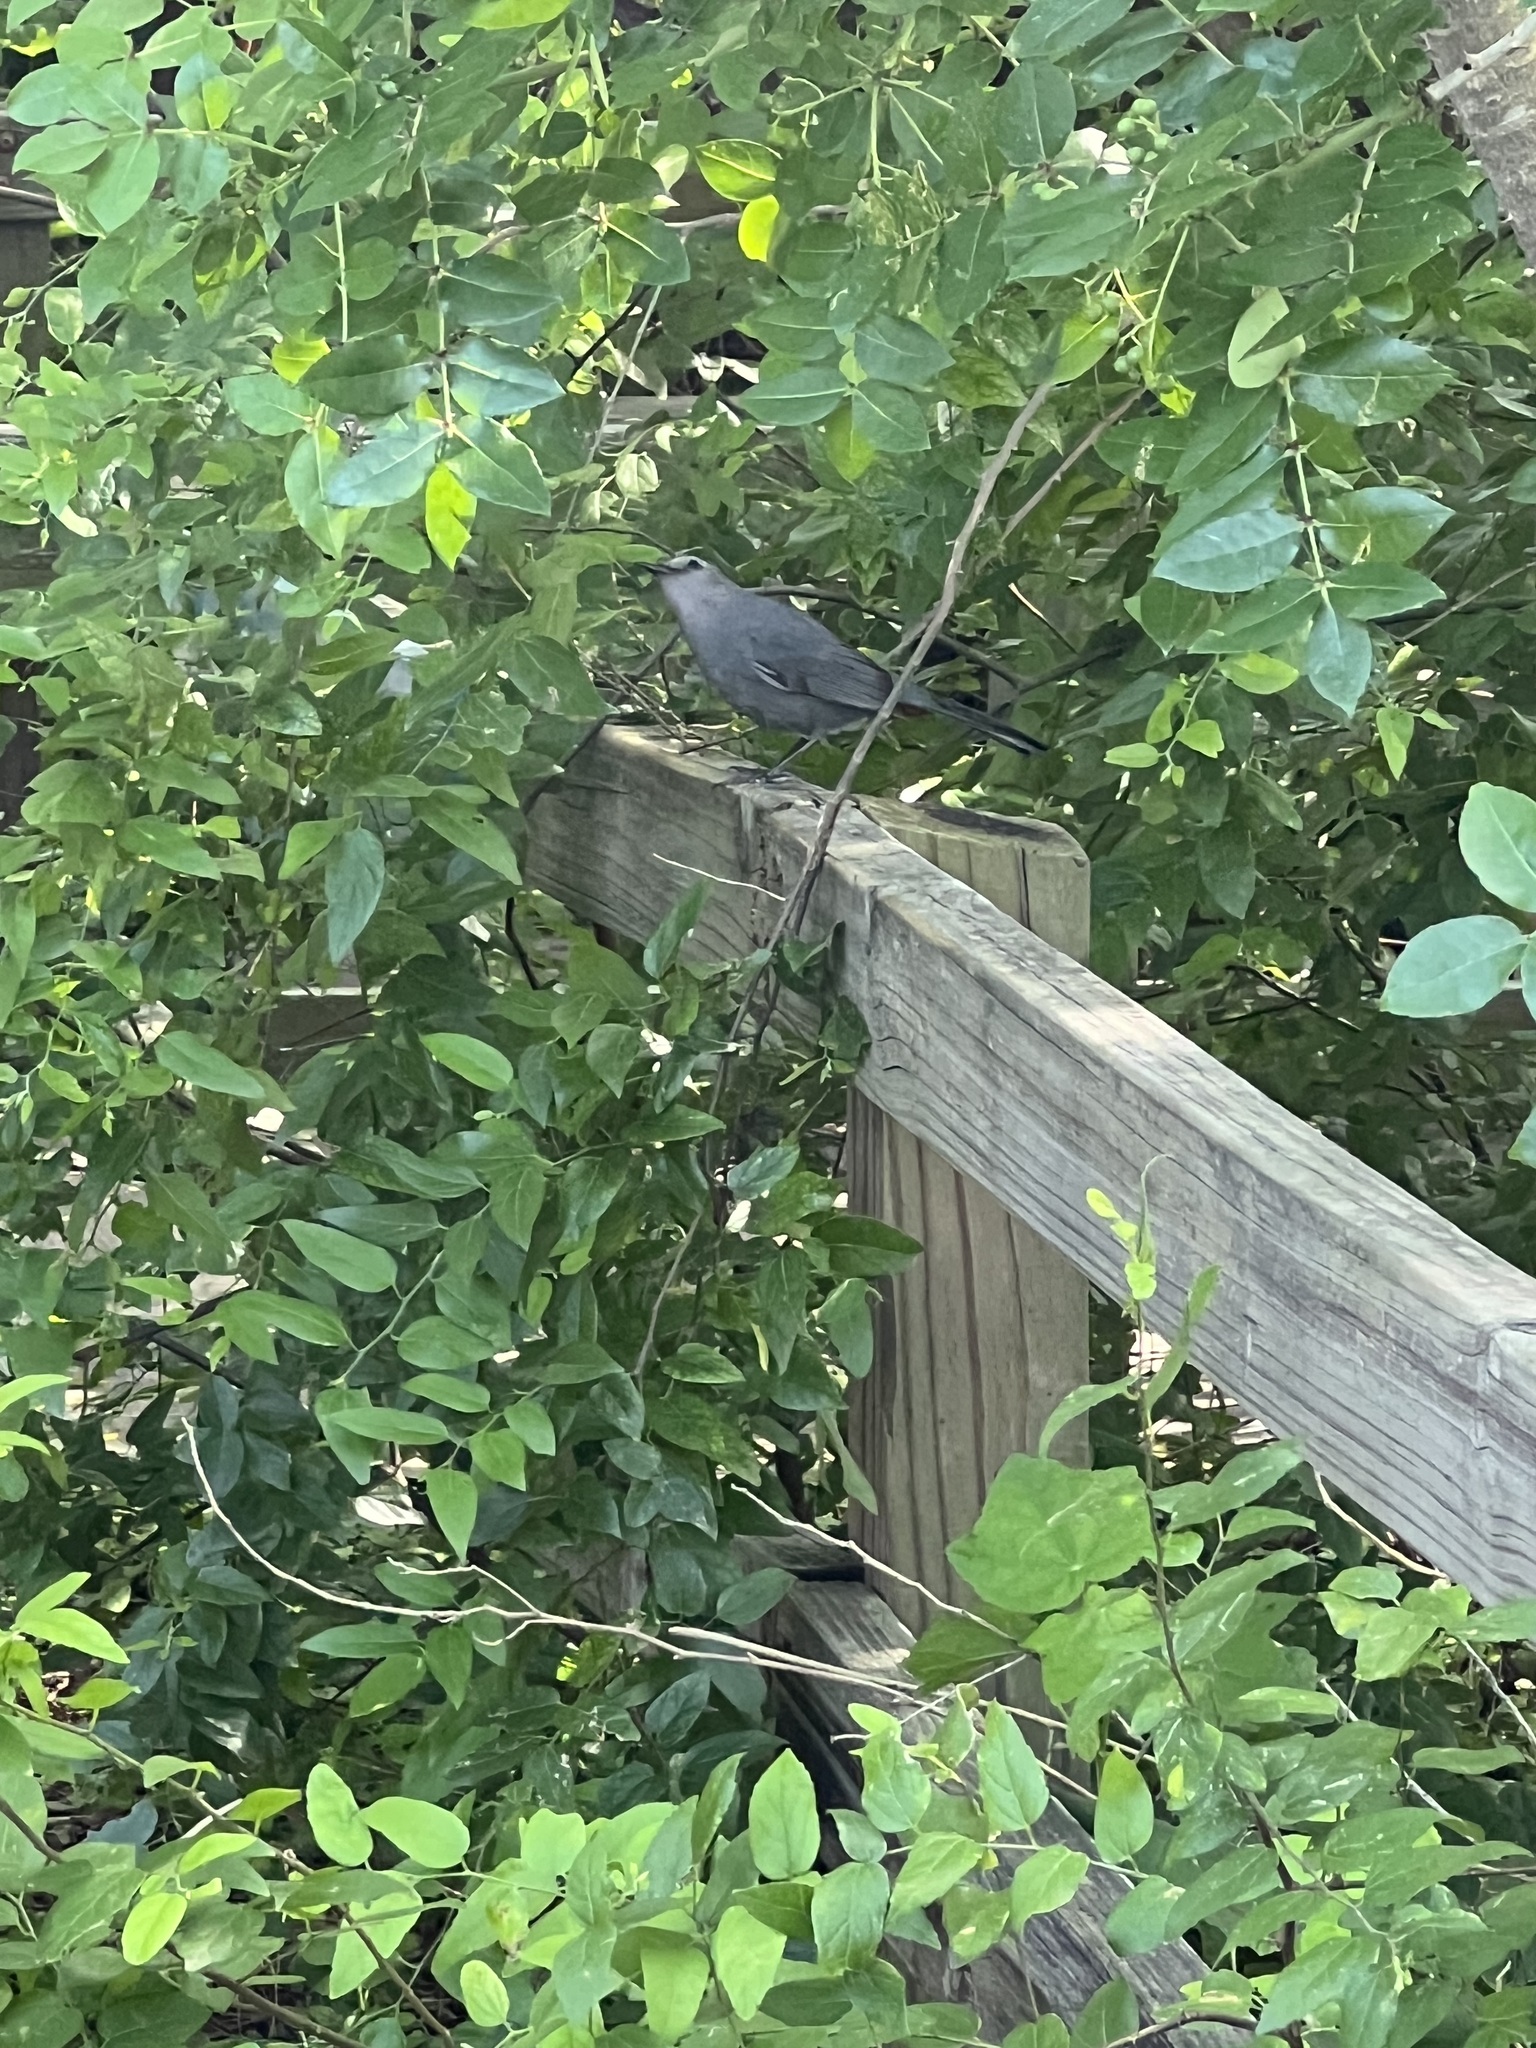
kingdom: Animalia
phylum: Chordata
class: Aves
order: Passeriformes
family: Mimidae
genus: Dumetella
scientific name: Dumetella carolinensis
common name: Gray catbird
